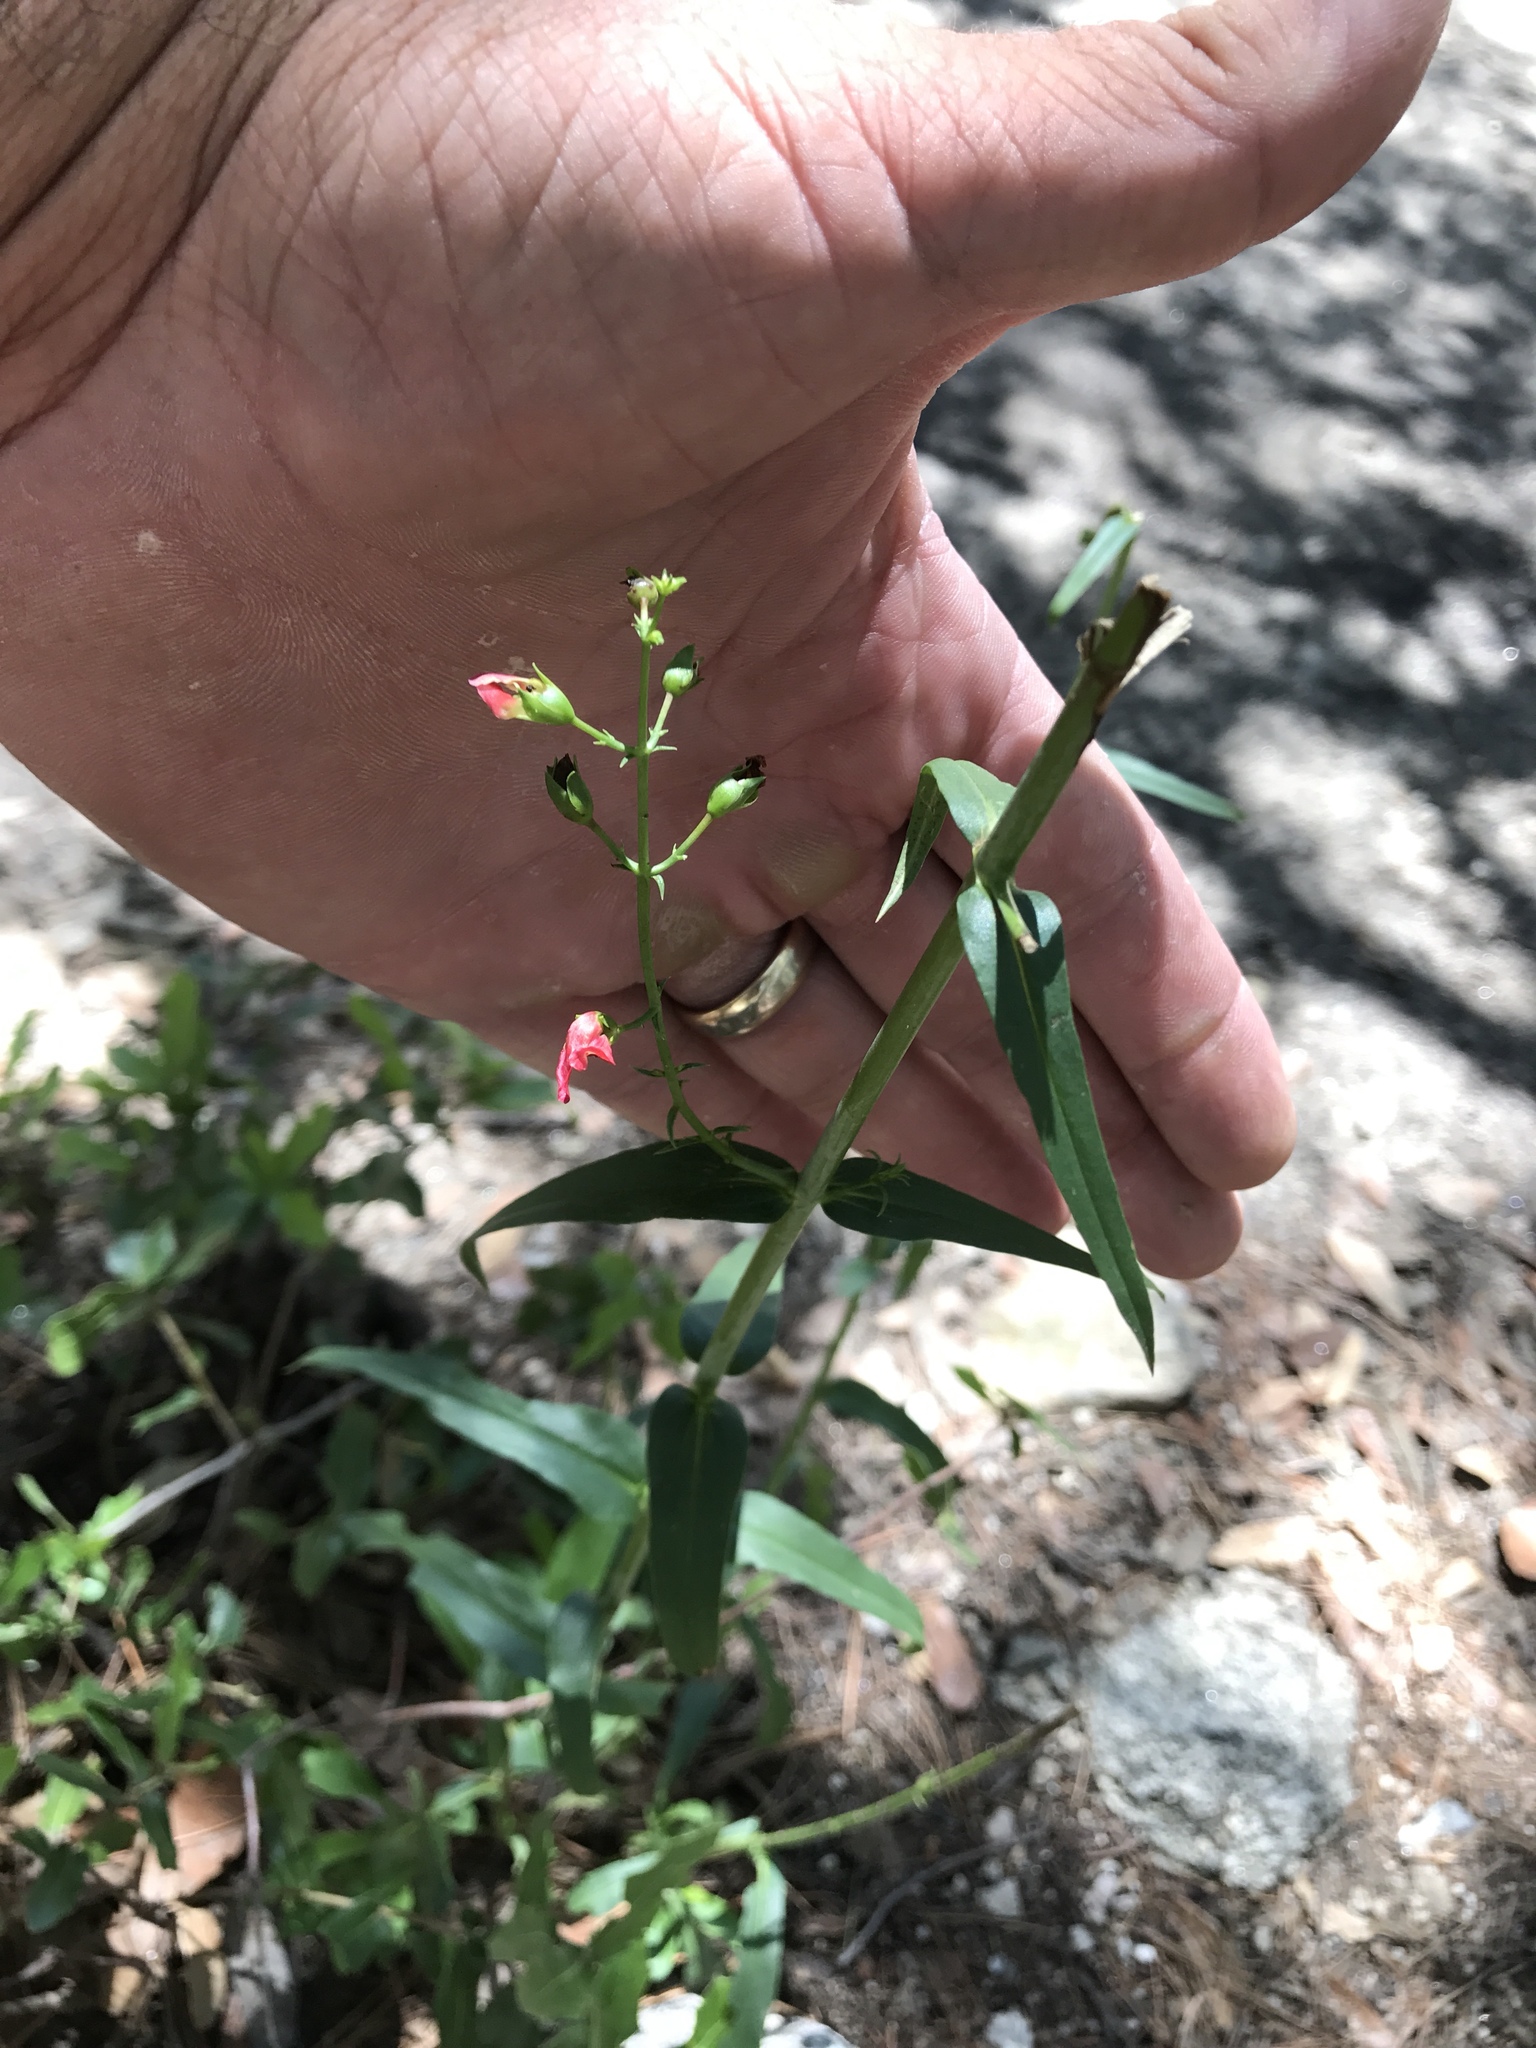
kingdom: Plantae
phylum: Tracheophyta
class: Magnoliopsida
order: Lamiales
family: Plantaginaceae
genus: Penstemon
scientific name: Penstemon barbatus
